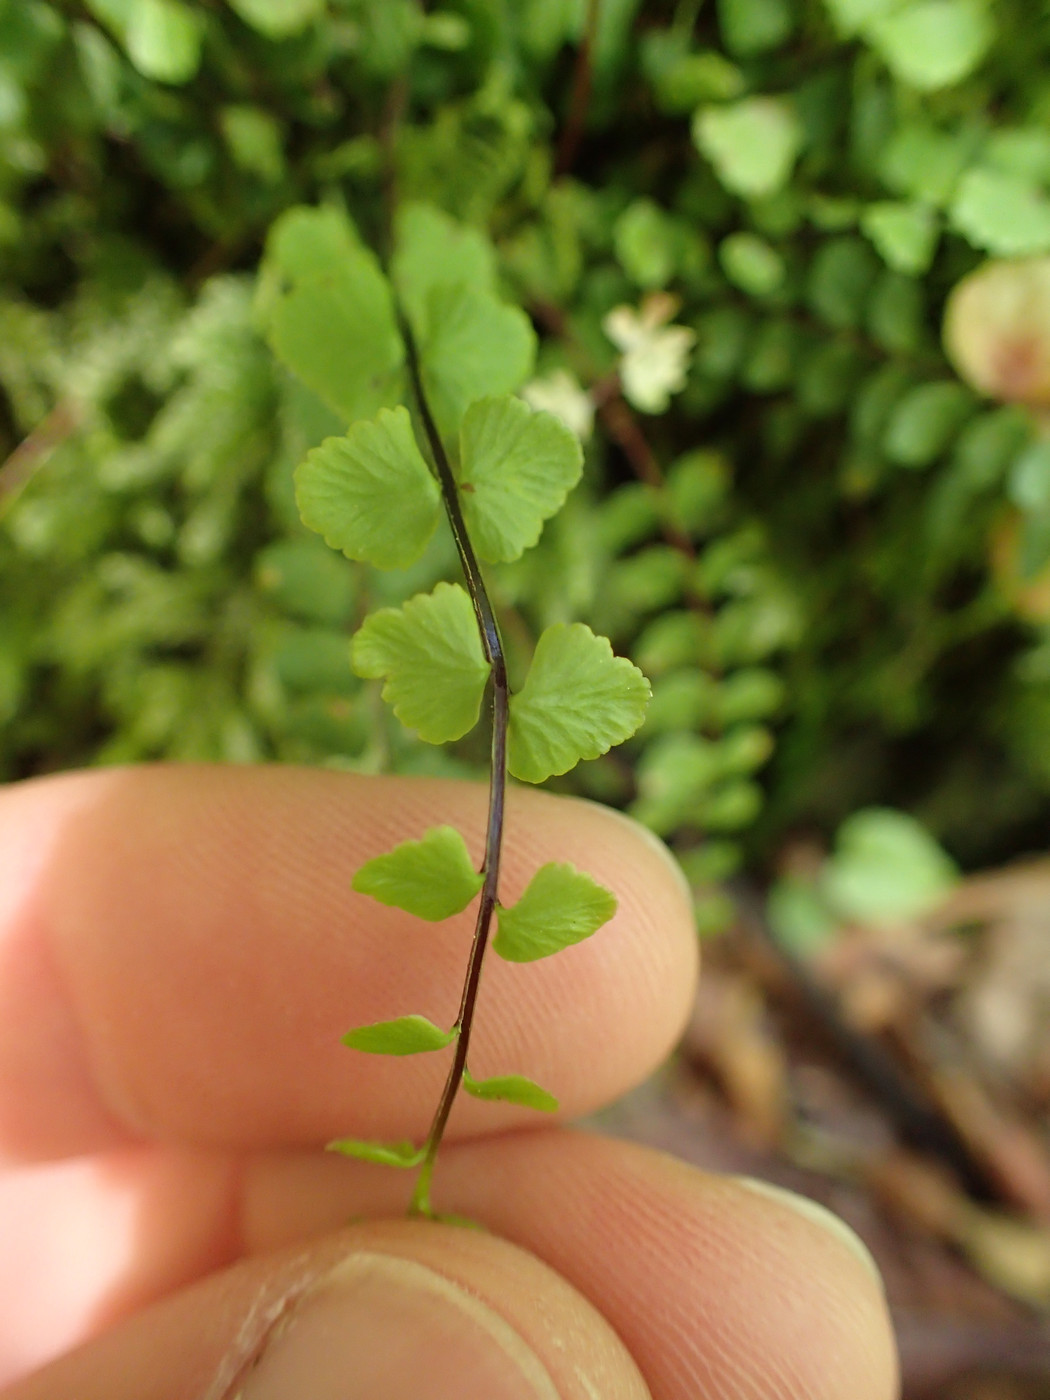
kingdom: Plantae
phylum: Tracheophyta
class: Polypodiopsida
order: Polypodiales
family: Aspleniaceae
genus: Asplenium
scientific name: Asplenium trichomanes
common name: Maidenhair spleenwort
